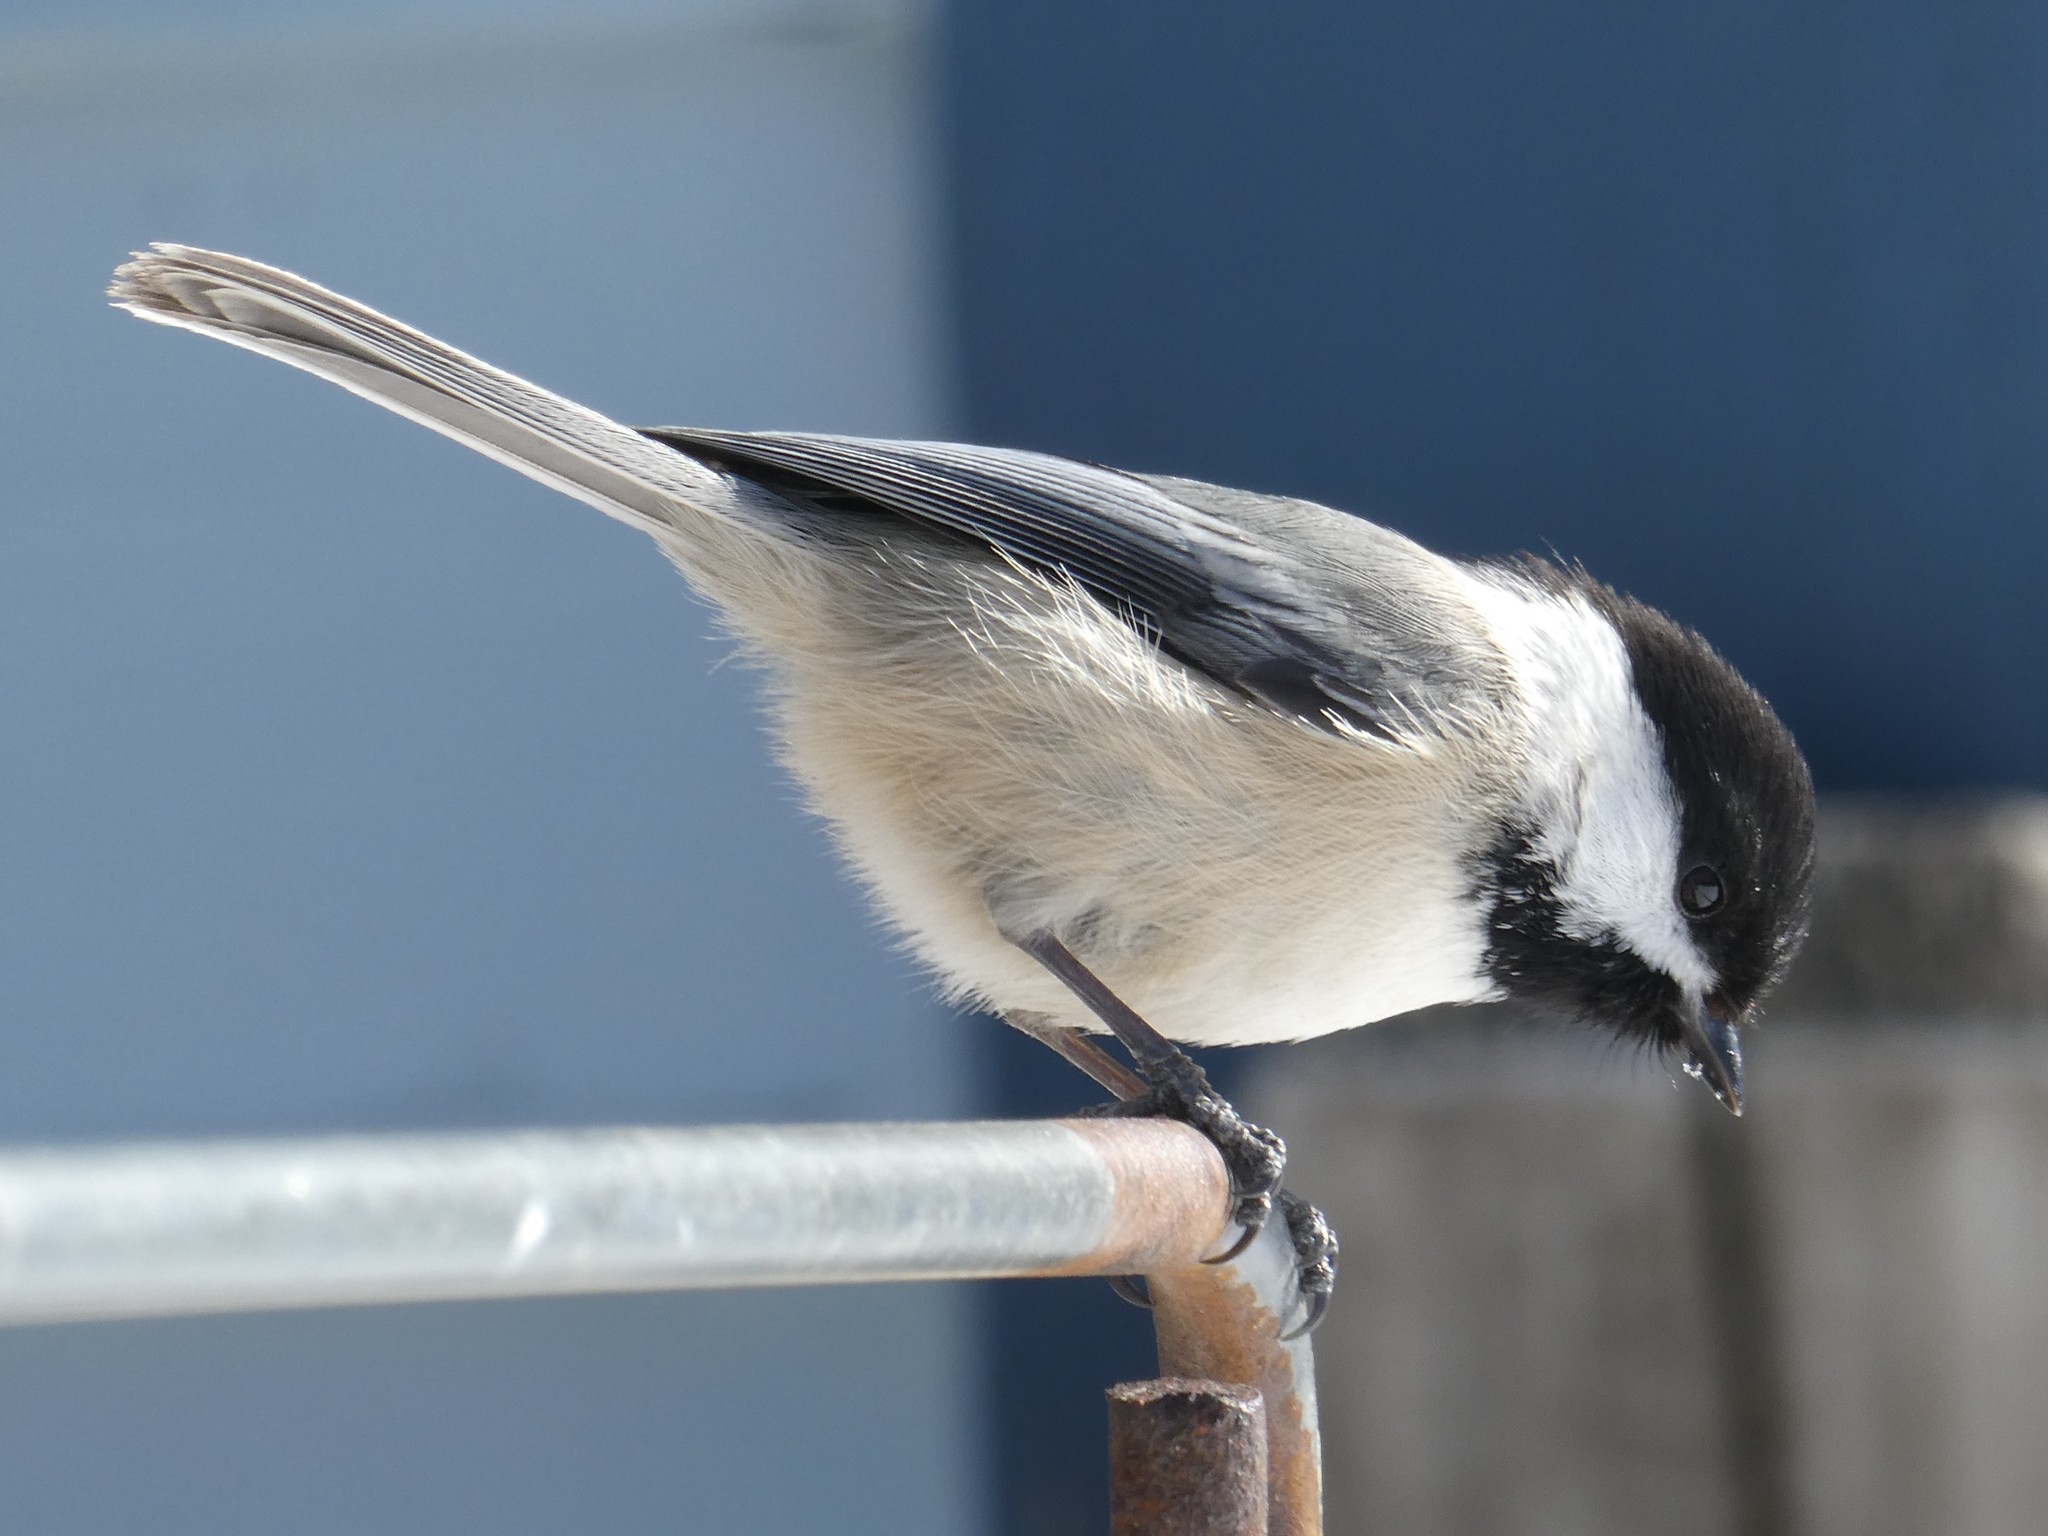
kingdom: Animalia
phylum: Chordata
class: Aves
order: Passeriformes
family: Paridae
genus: Poecile
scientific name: Poecile atricapillus
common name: Black-capped chickadee
